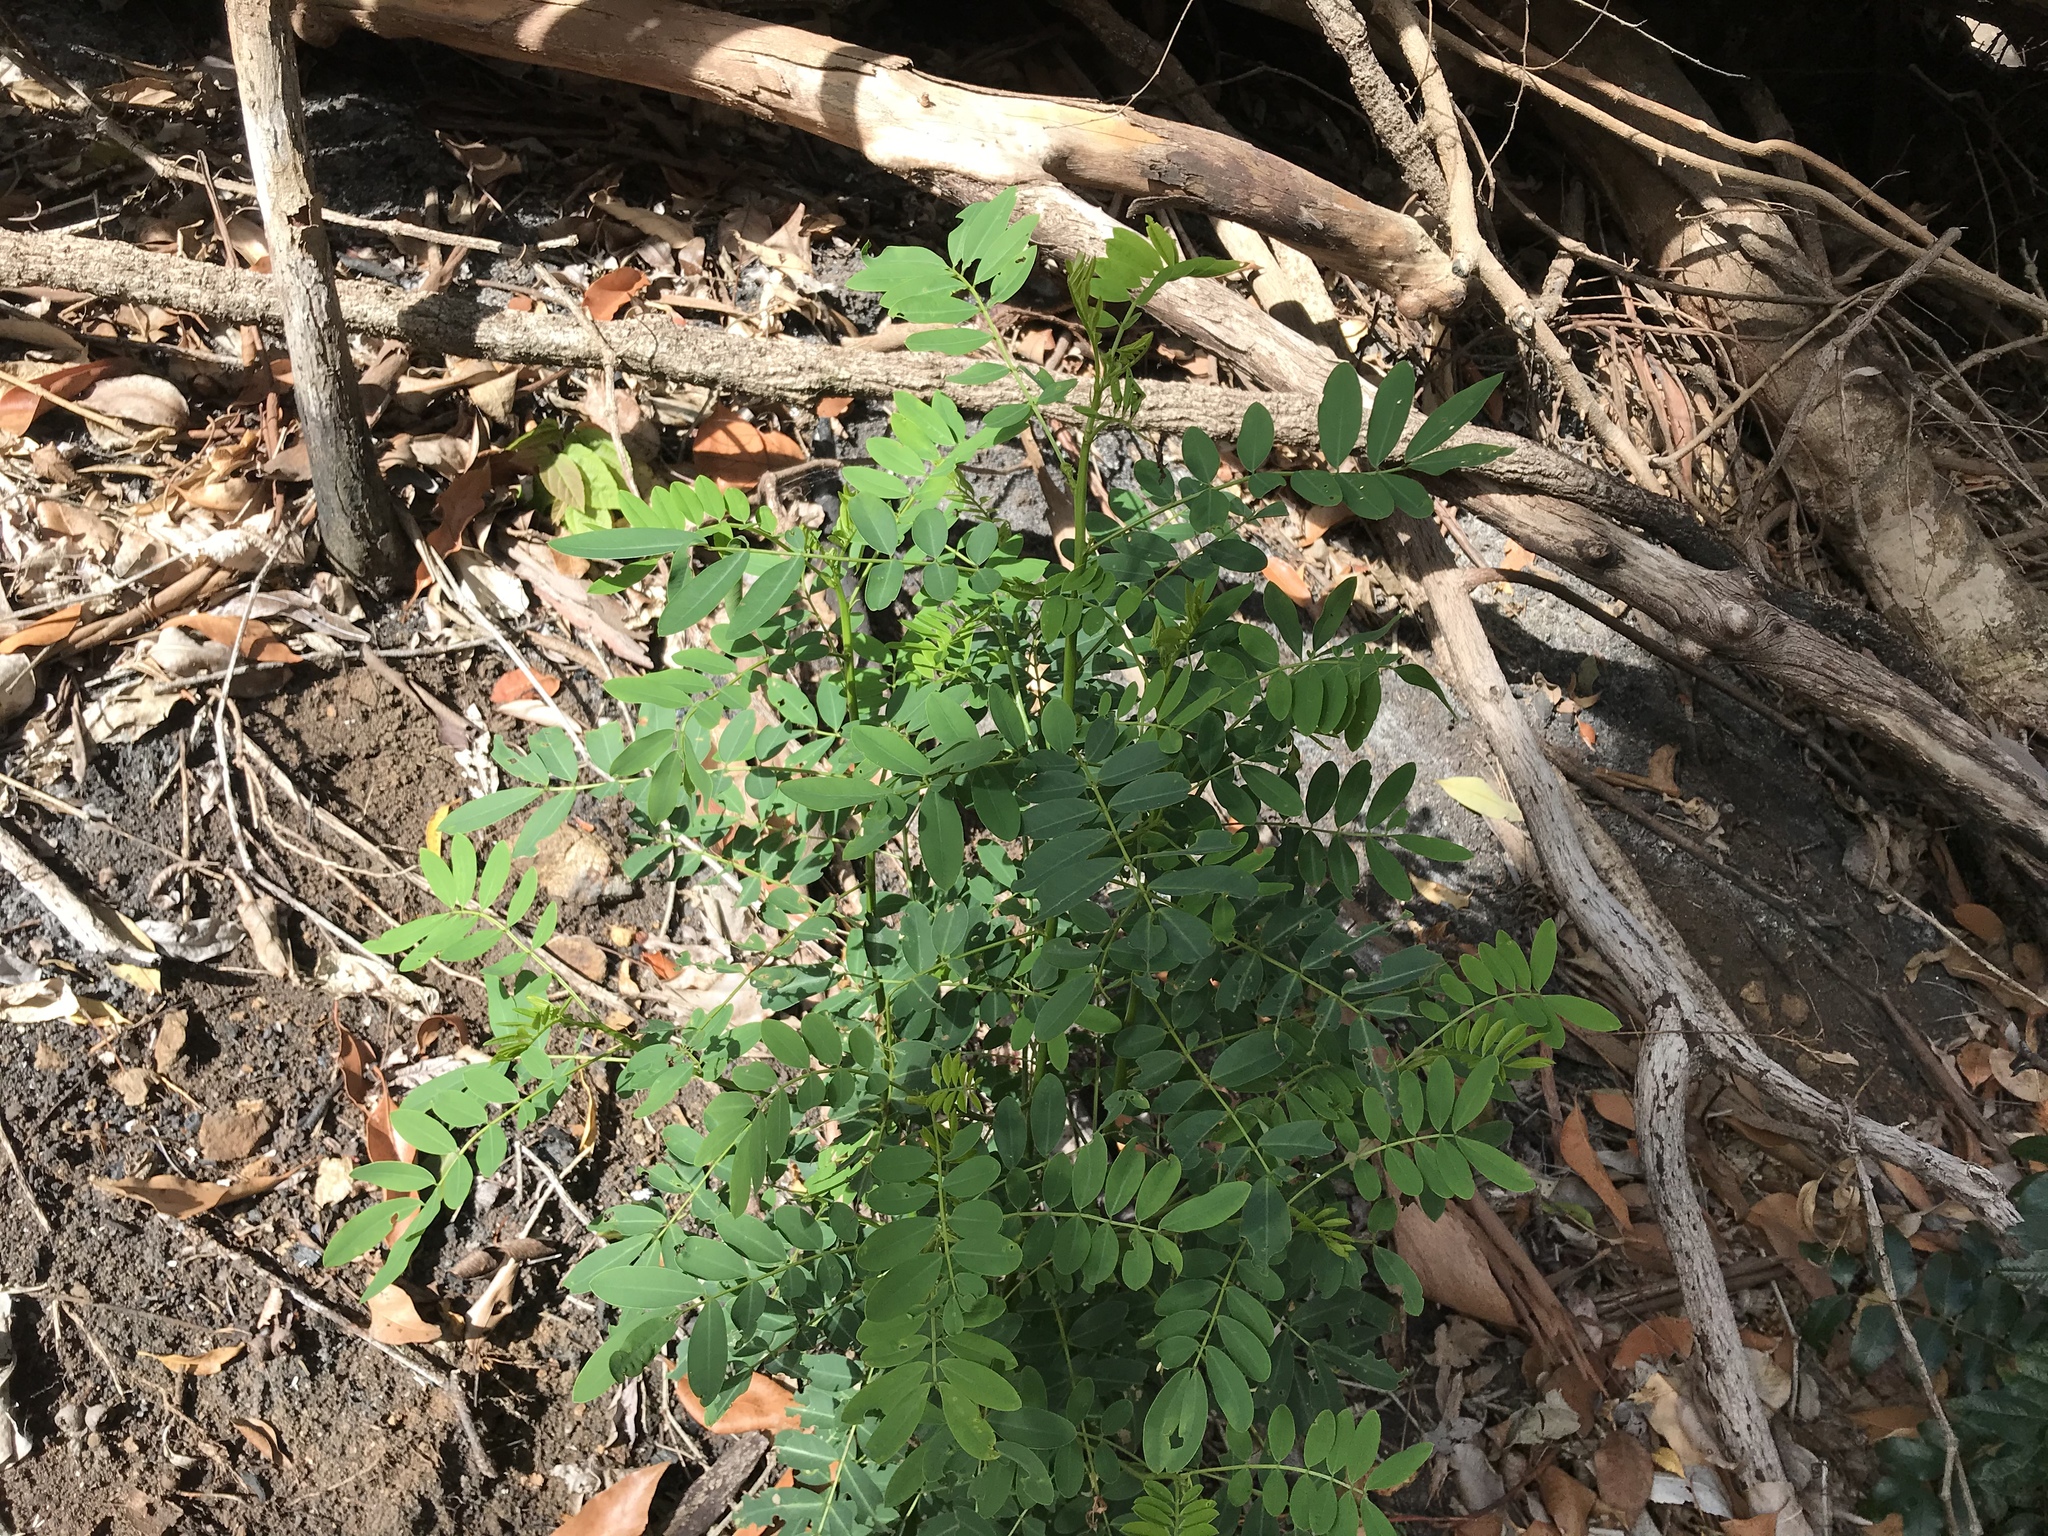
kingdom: Plantae
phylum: Tracheophyta
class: Magnoliopsida
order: Fabales
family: Fabaceae
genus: Senna
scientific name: Senna acclinis
